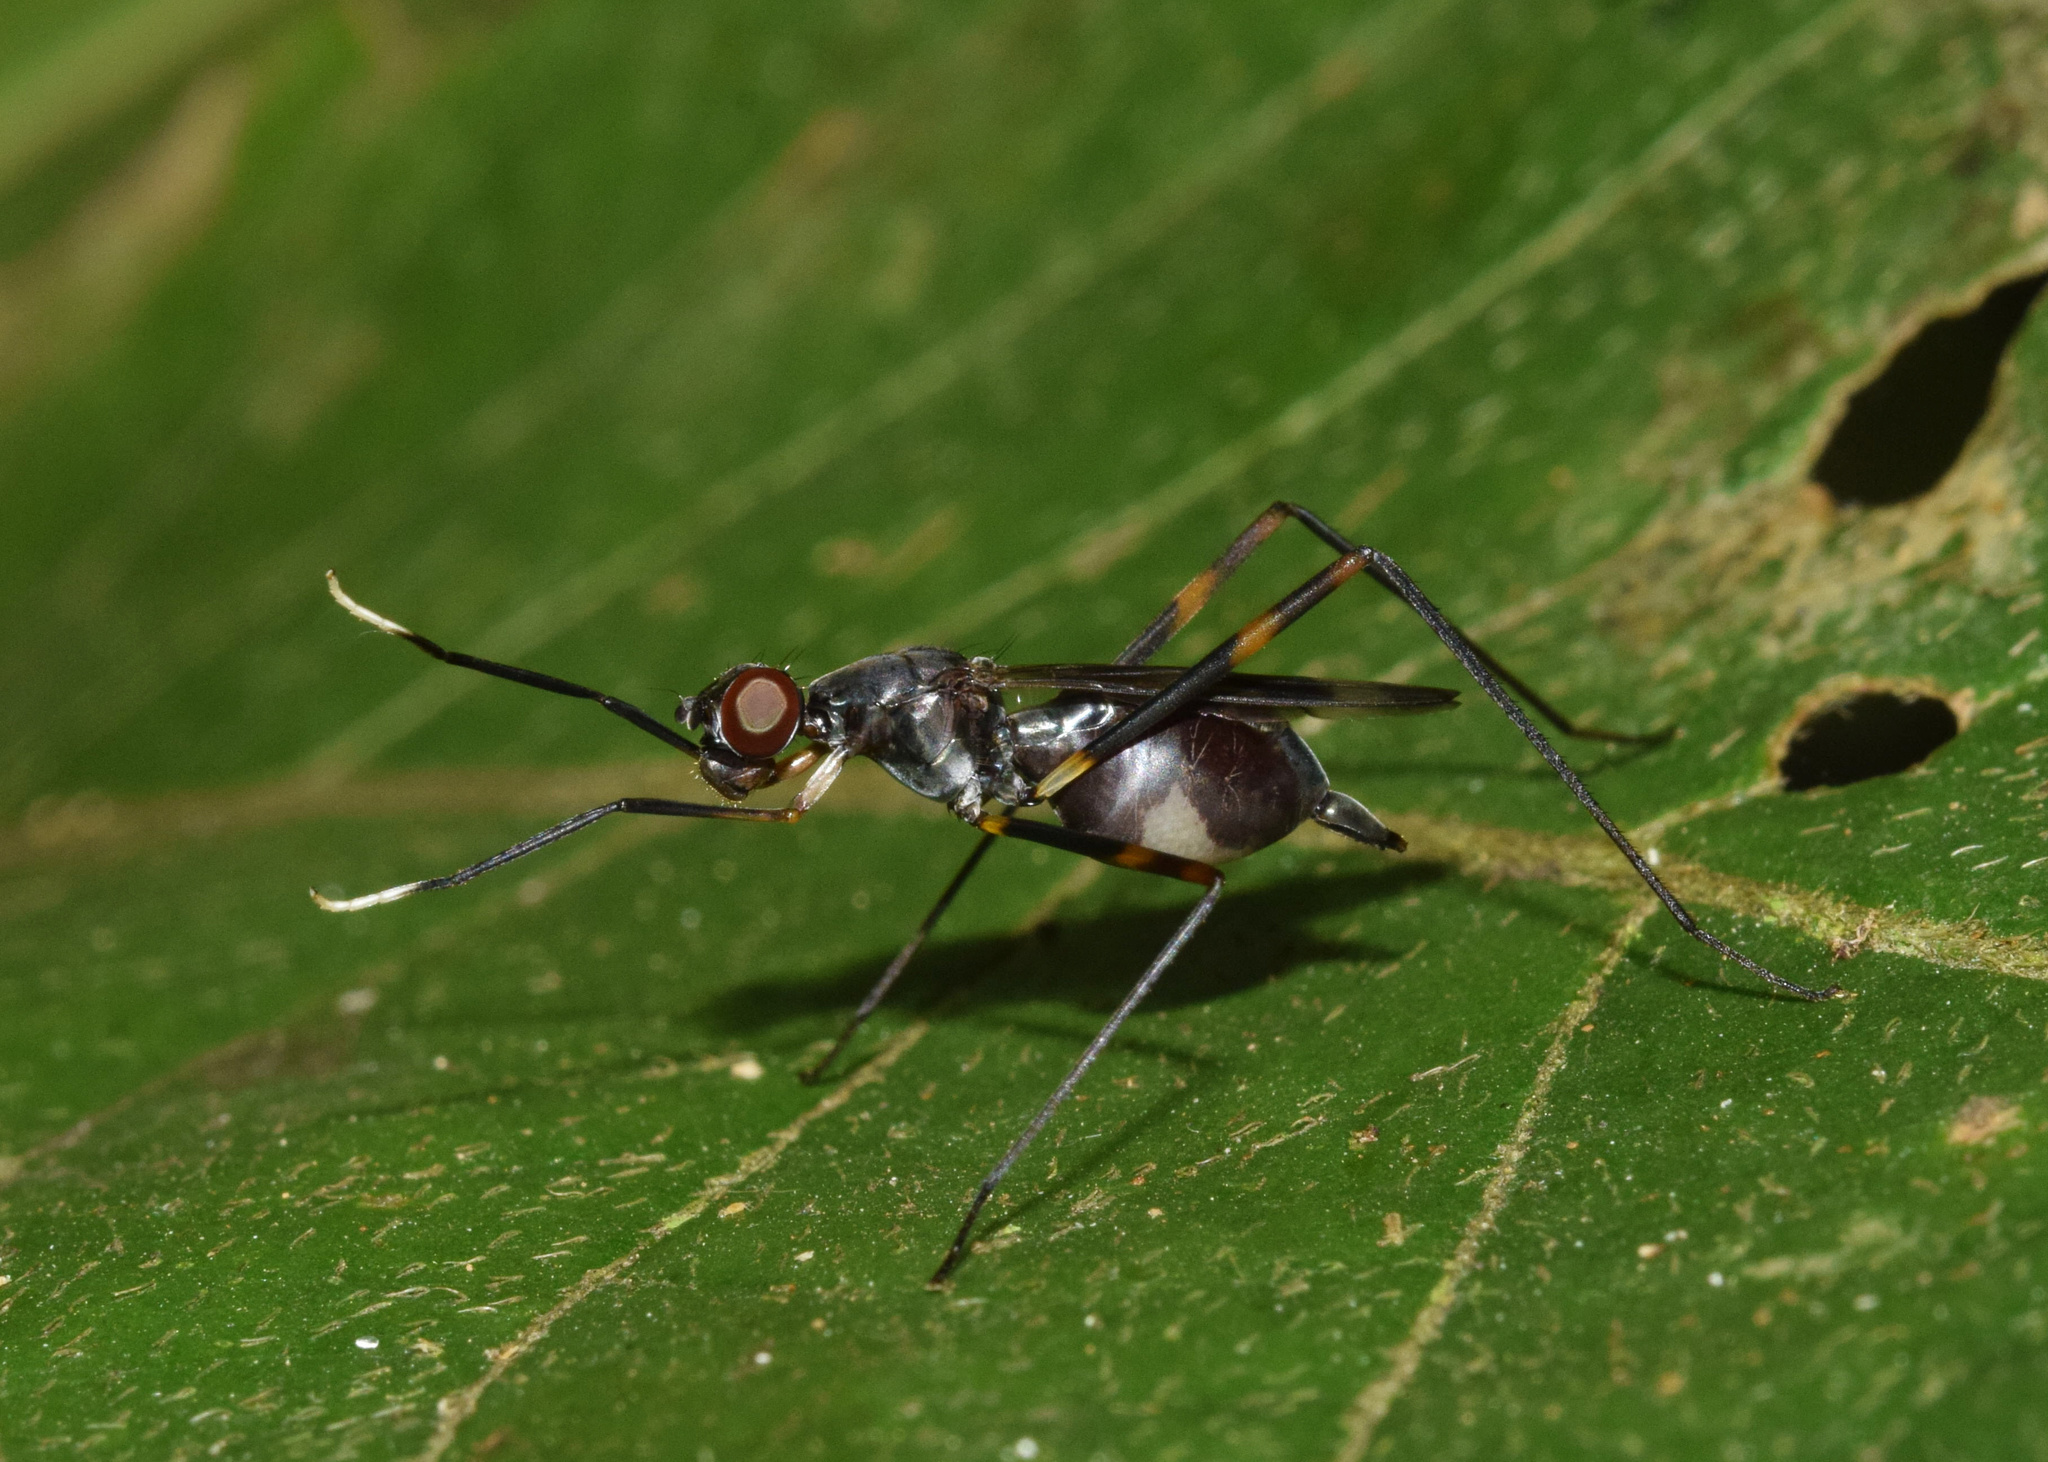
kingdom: Animalia
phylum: Arthropoda
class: Insecta
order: Diptera
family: Micropezidae
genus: Hybobata
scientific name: Hybobata
